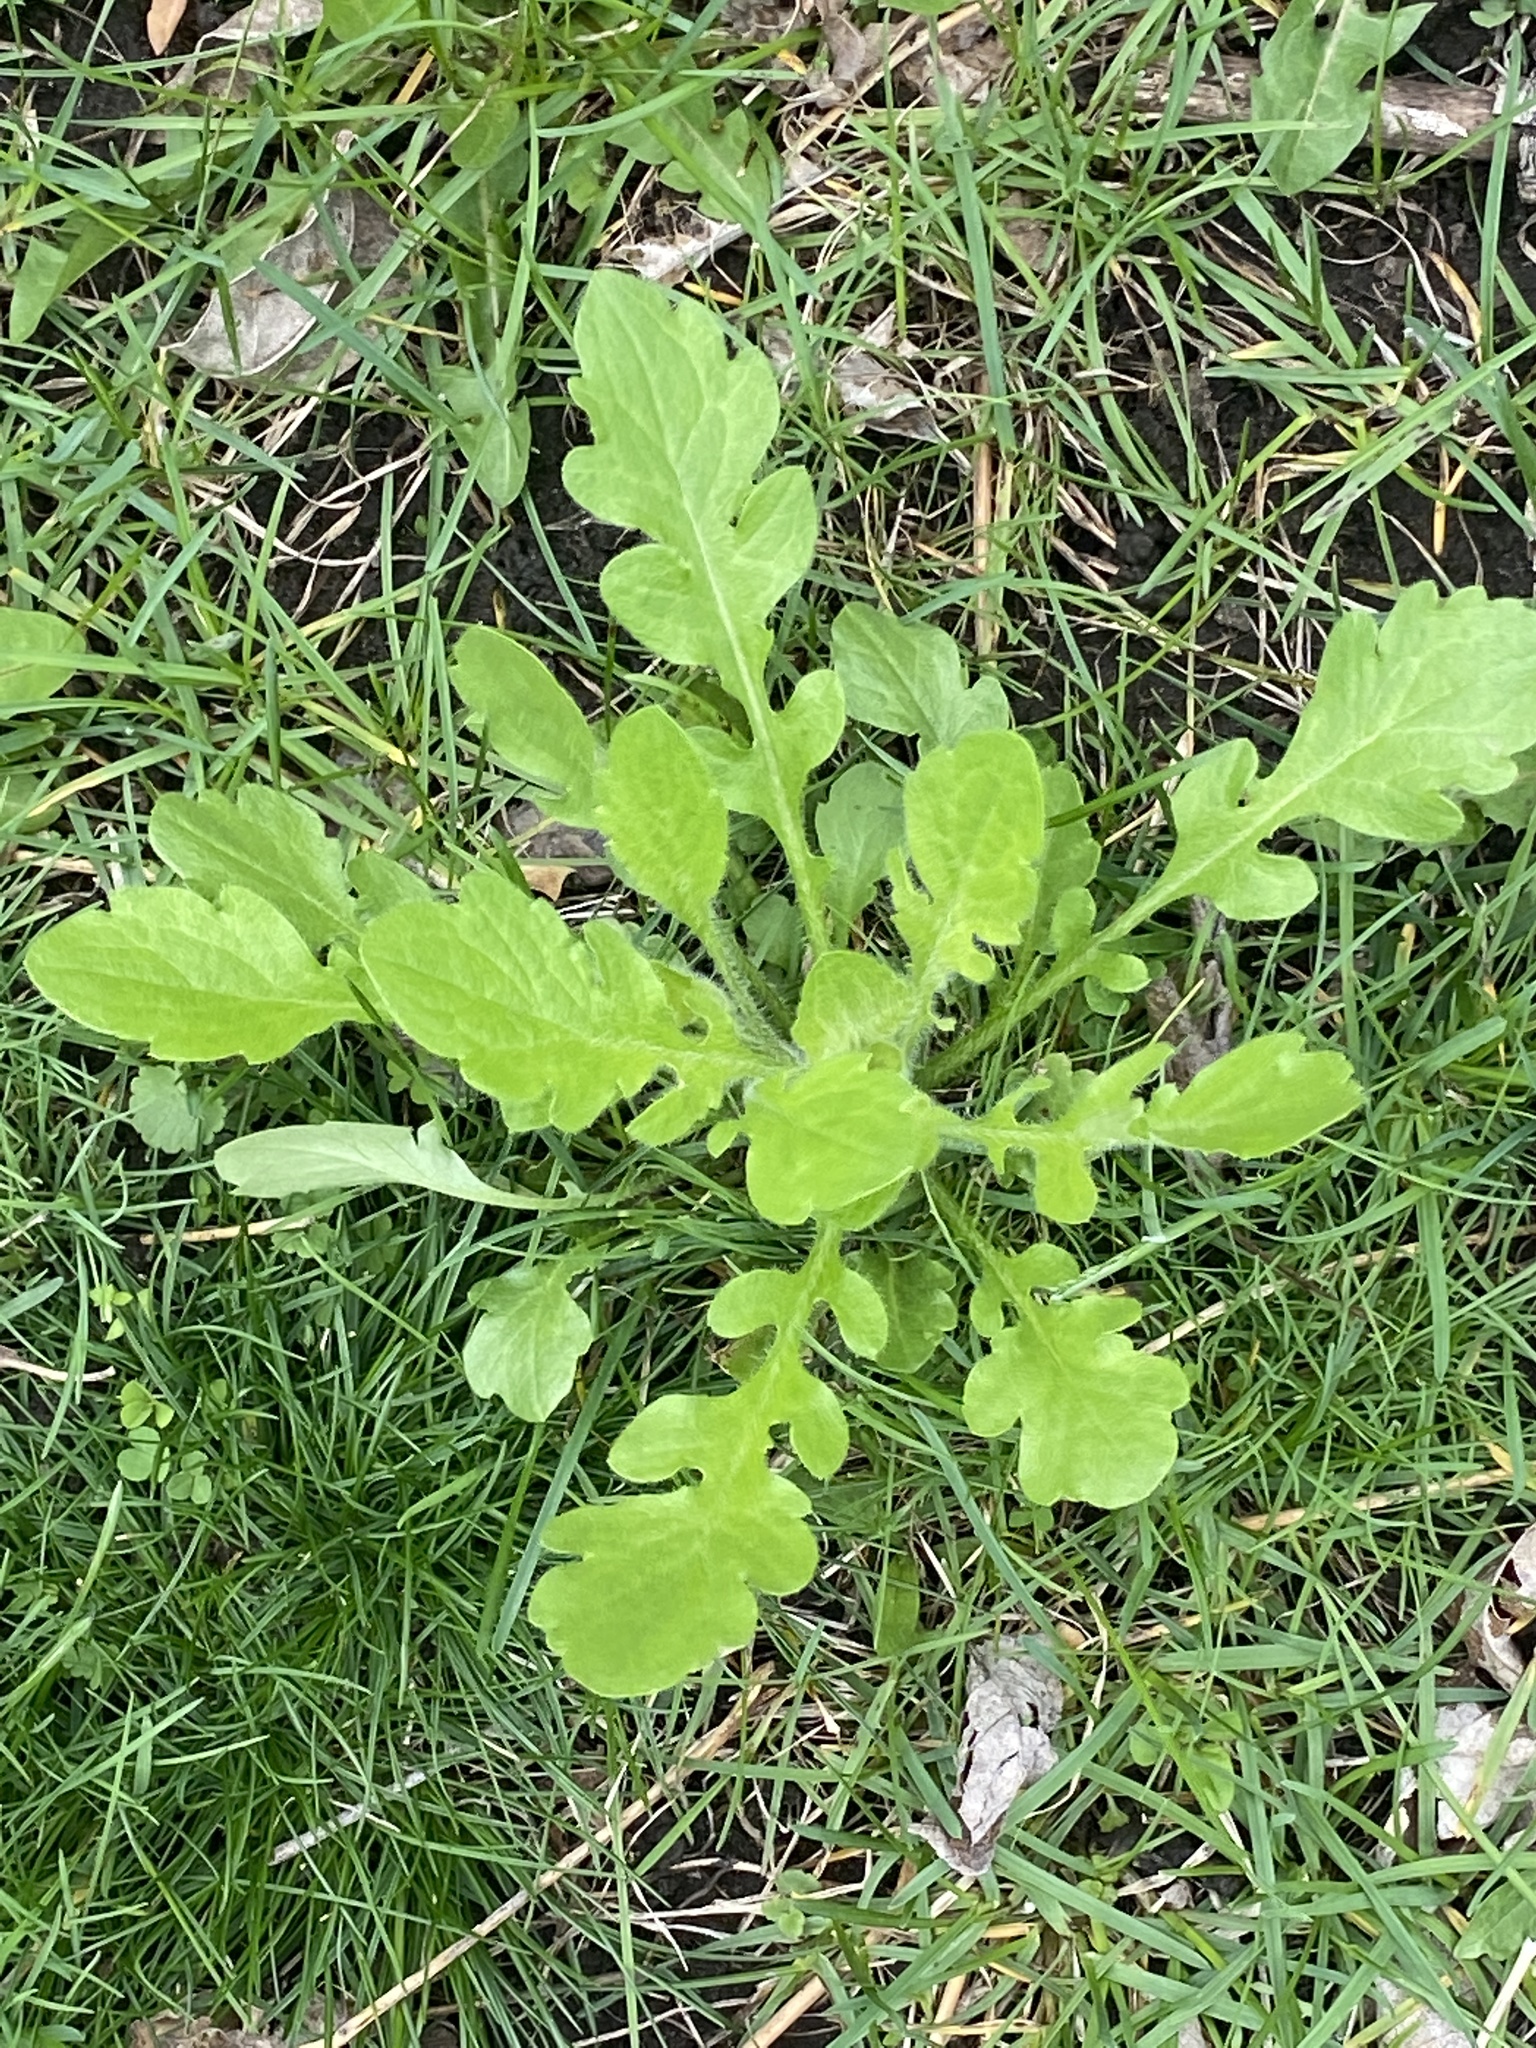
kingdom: Plantae
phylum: Tracheophyta
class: Magnoliopsida
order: Asterales
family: Asteraceae
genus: Erigeron
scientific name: Erigeron canadensis
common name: Canadian fleabane
